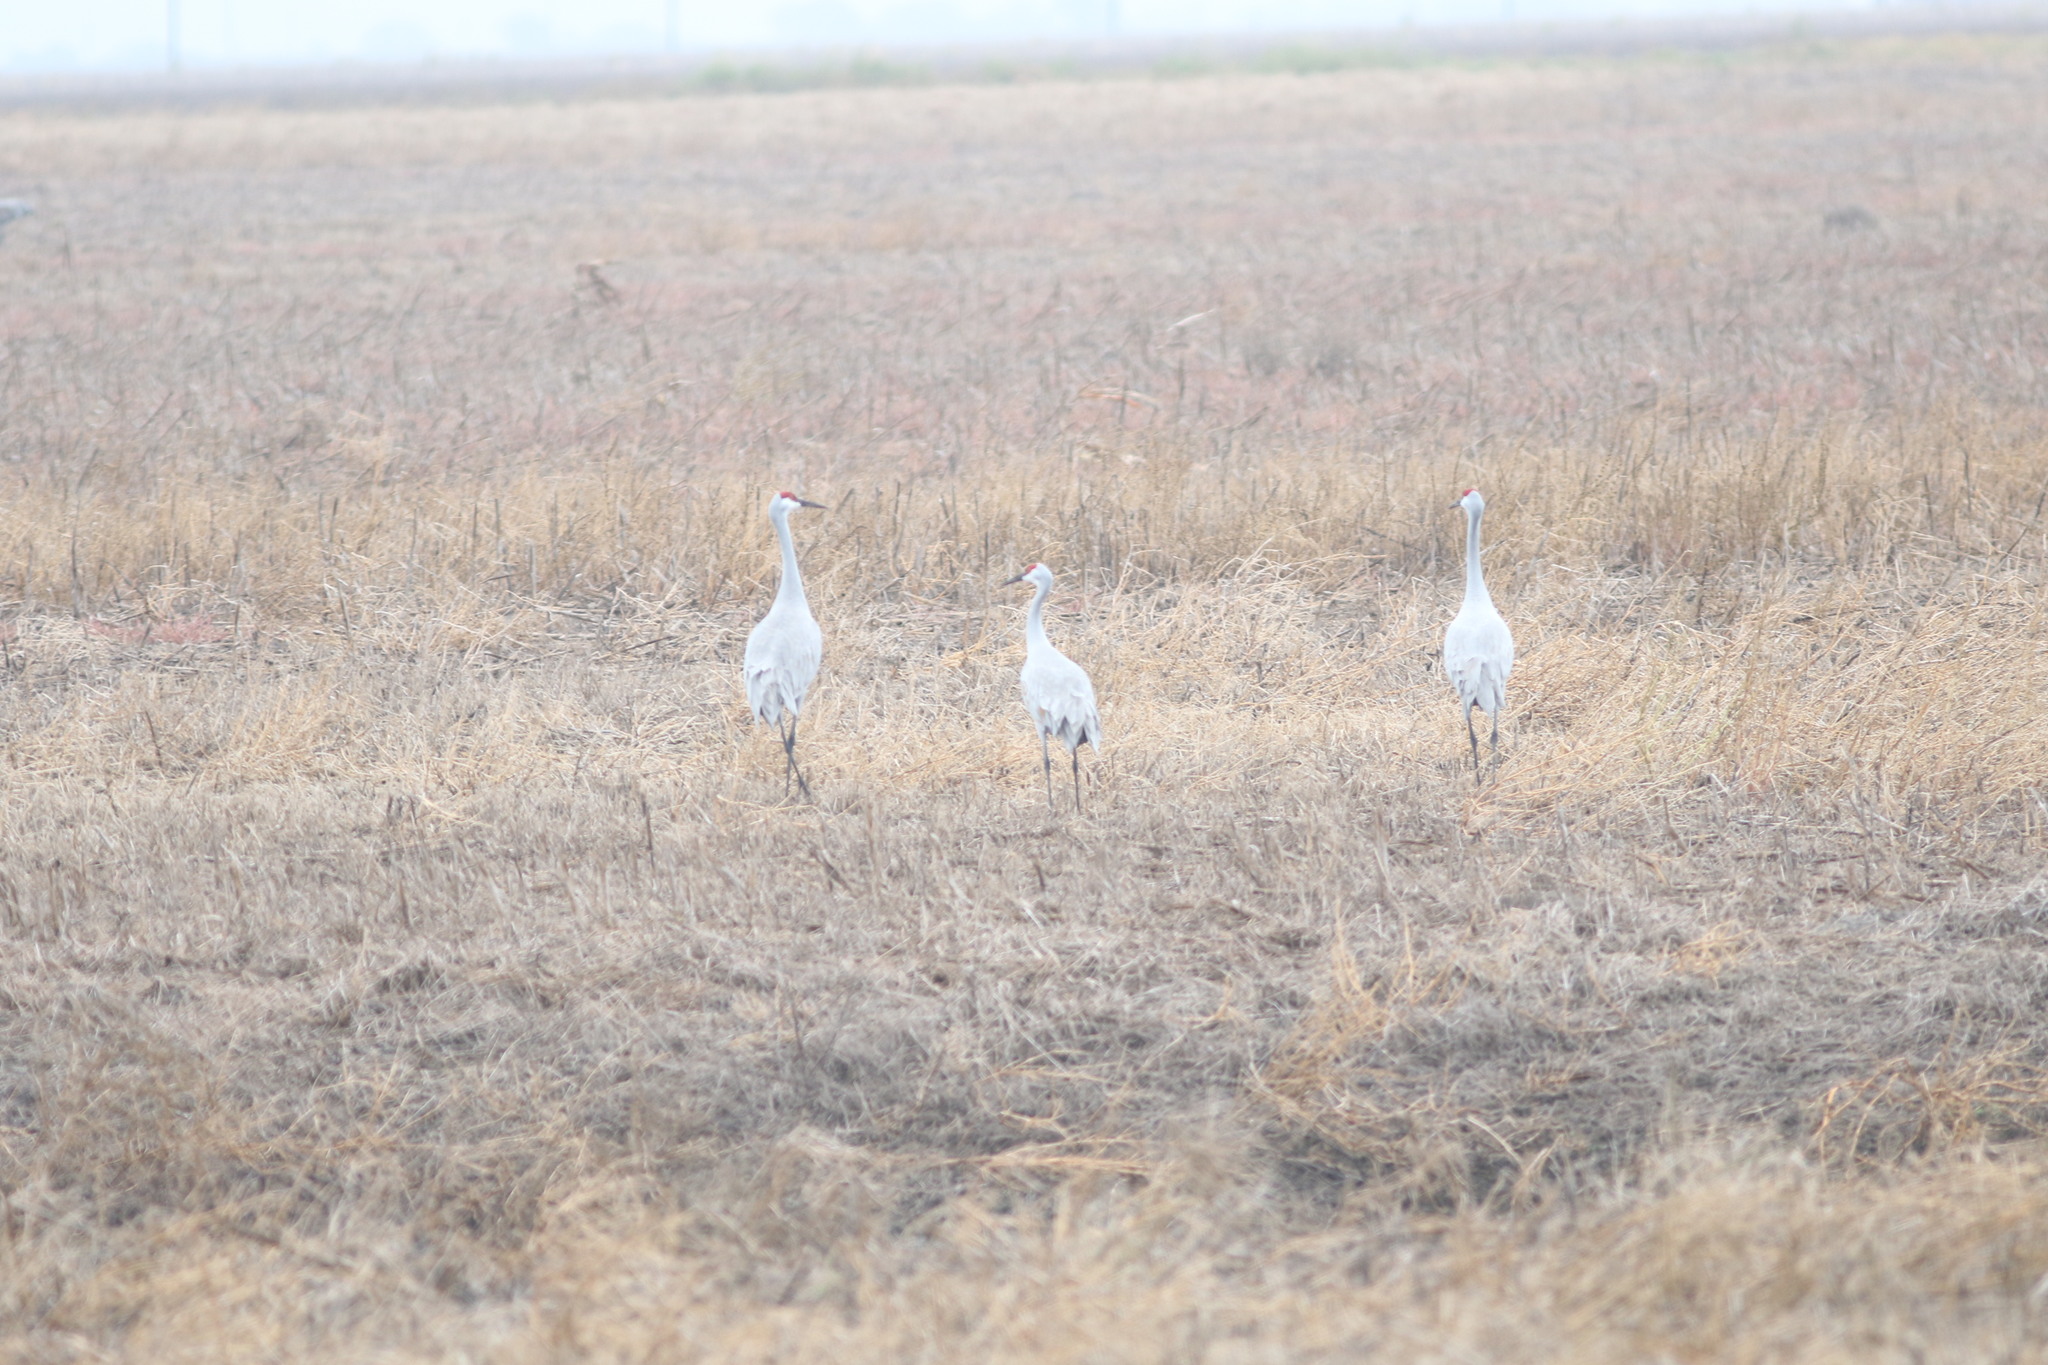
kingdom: Animalia
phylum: Chordata
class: Aves
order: Gruiformes
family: Gruidae
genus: Grus
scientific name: Grus canadensis
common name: Sandhill crane
